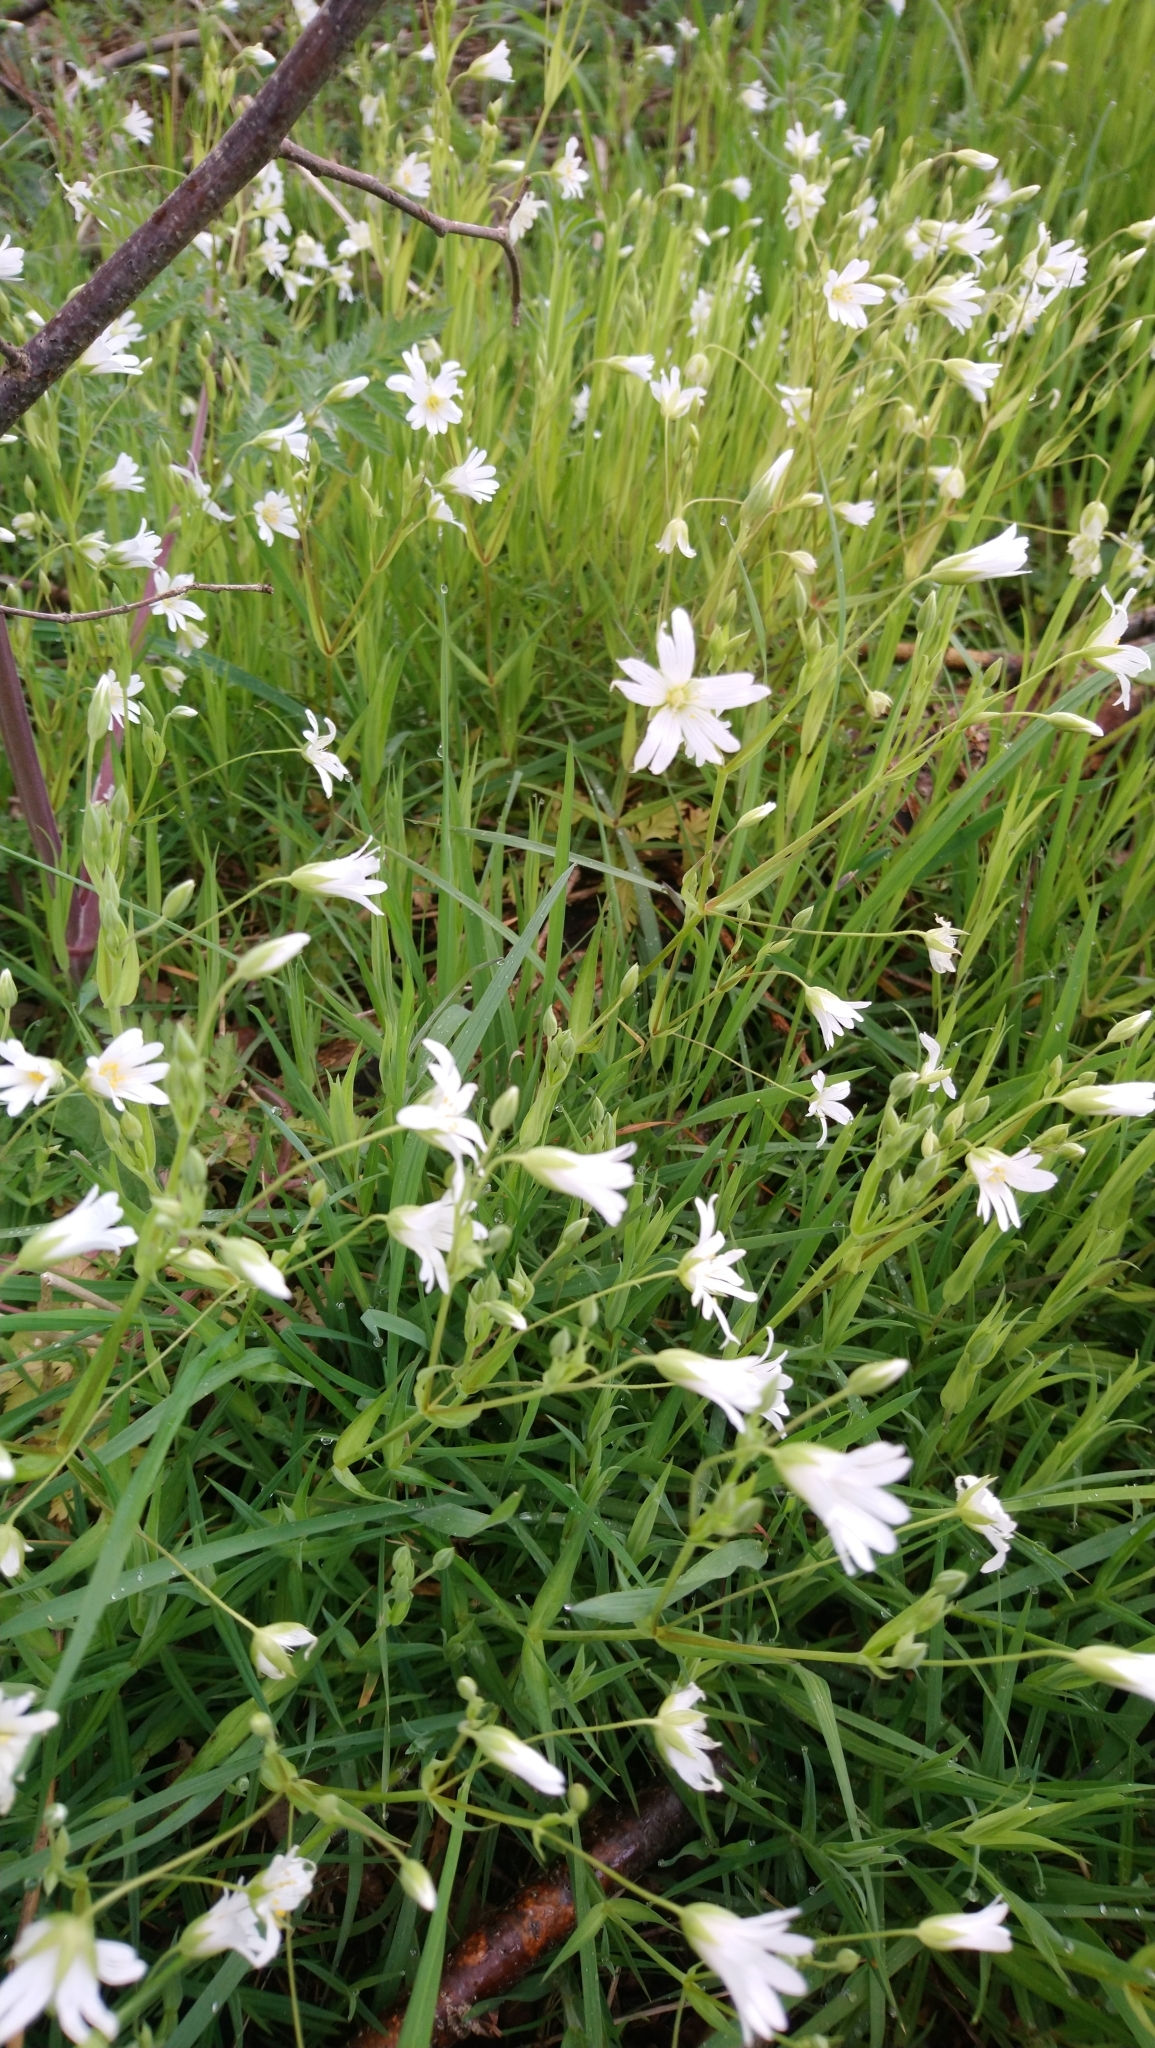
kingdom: Plantae
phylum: Tracheophyta
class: Magnoliopsida
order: Caryophyllales
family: Caryophyllaceae
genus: Rabelera
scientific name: Rabelera holostea
